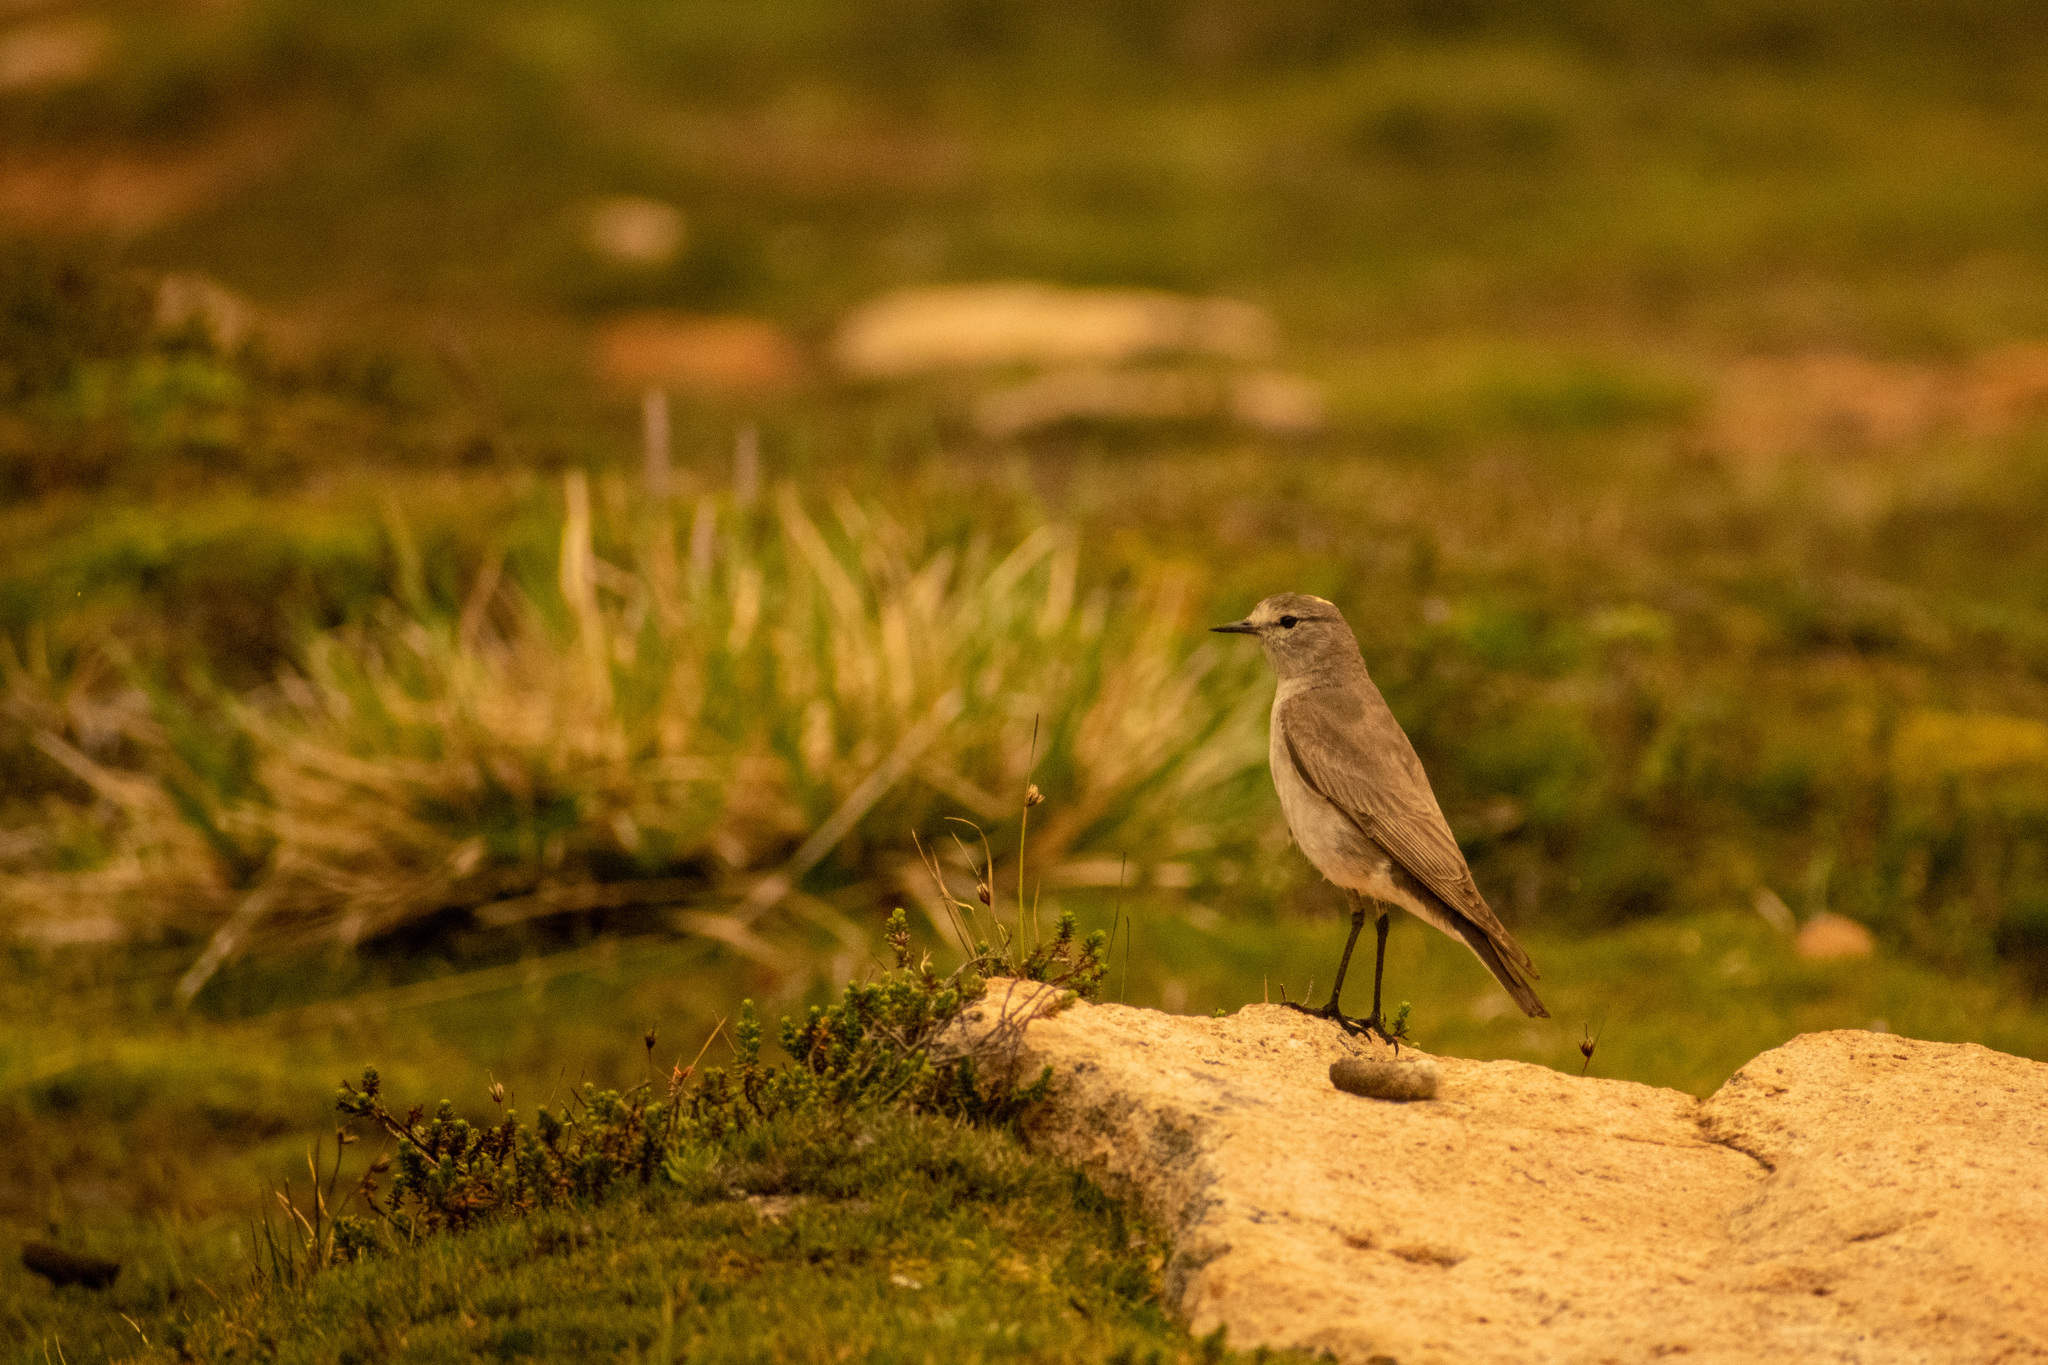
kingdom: Animalia
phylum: Chordata
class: Aves
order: Passeriformes
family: Tyrannidae
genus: Muscisaxicola
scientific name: Muscisaxicola flavinucha
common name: Ochre-naped ground tyrant
